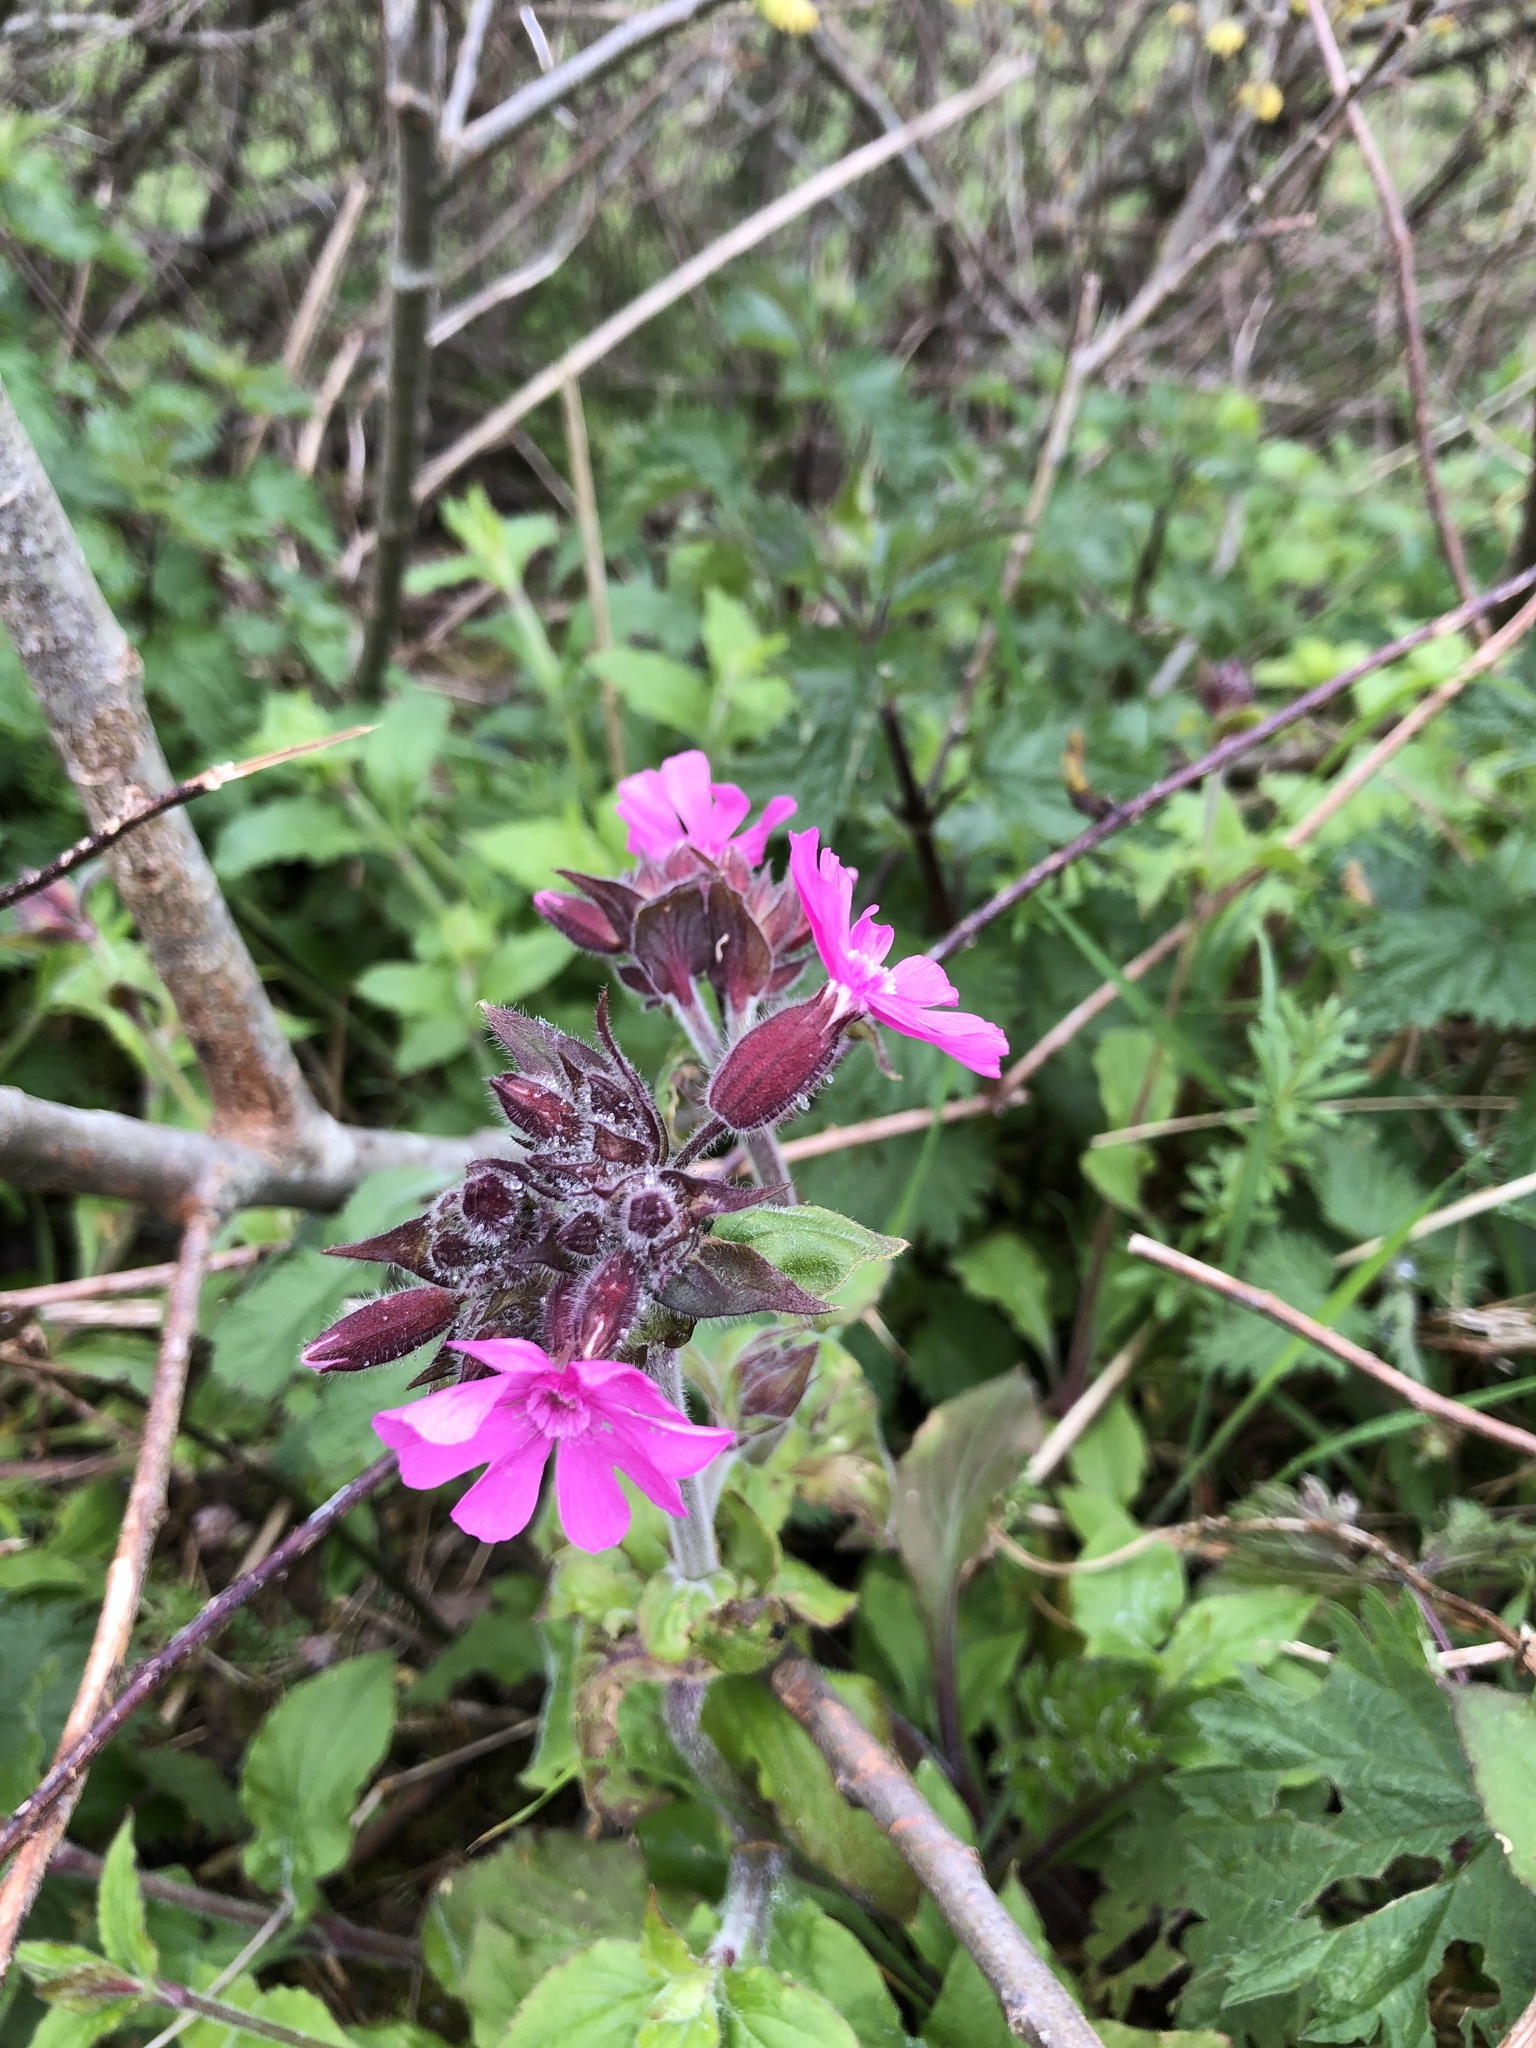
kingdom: Plantae
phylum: Tracheophyta
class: Magnoliopsida
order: Caryophyllales
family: Caryophyllaceae
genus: Silene
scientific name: Silene dioica
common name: Red campion
